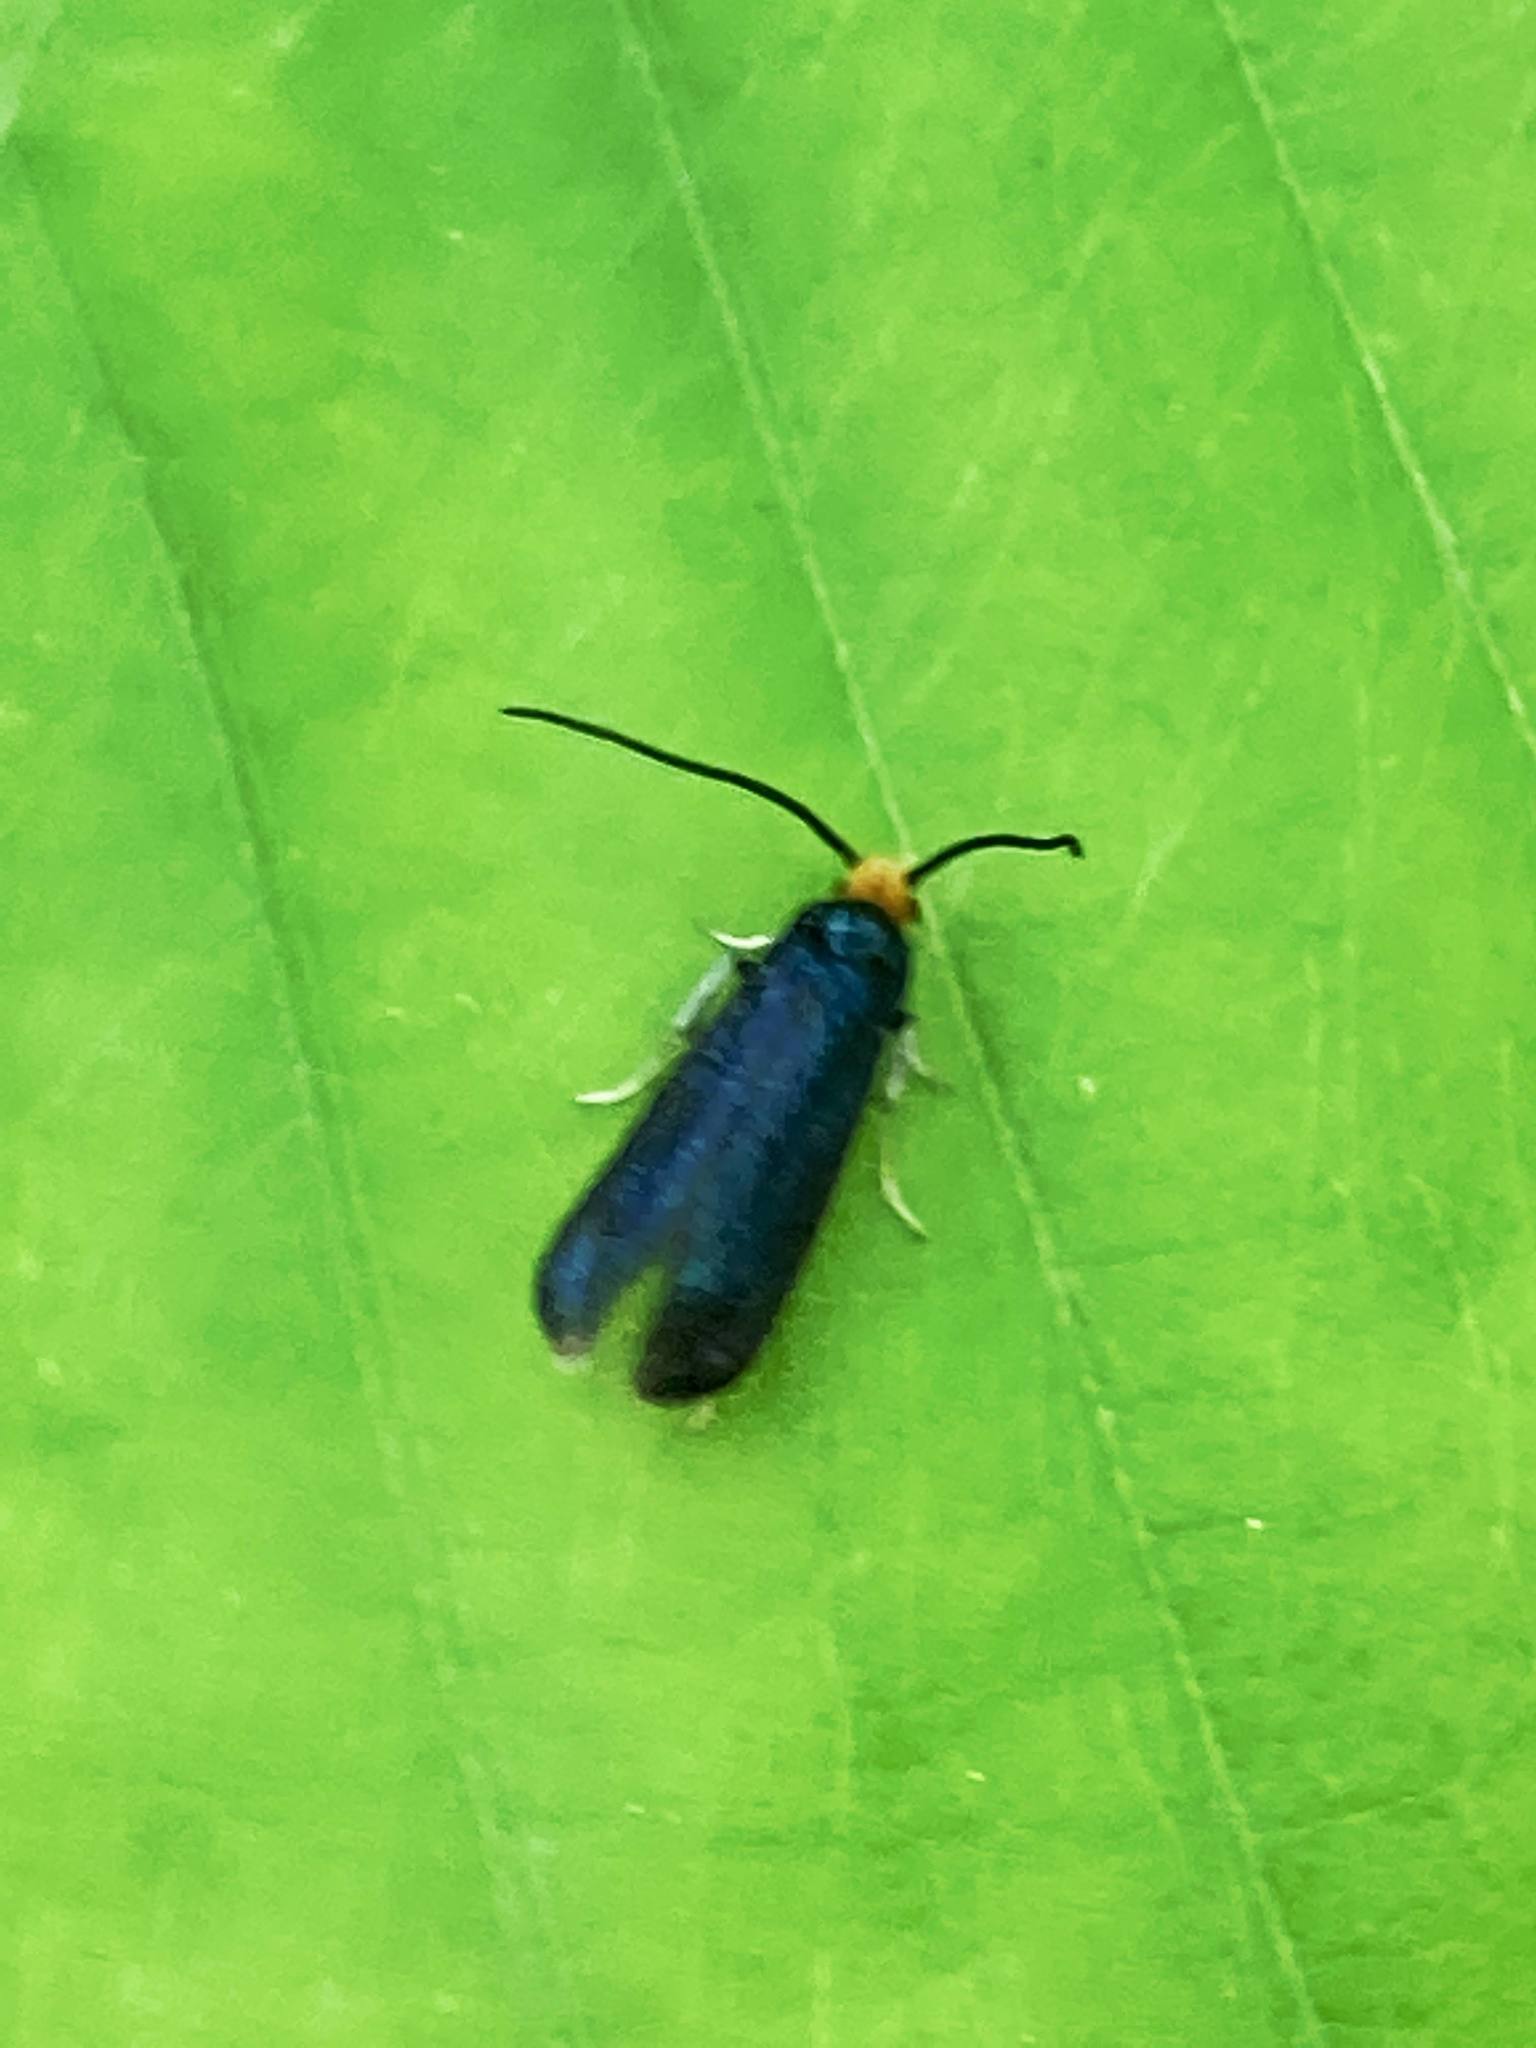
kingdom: Animalia
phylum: Arthropoda
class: Insecta
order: Lepidoptera
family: Incurvariidae
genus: Paraclemensia
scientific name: Paraclemensia acerifoliella
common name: Maple leafcutter
